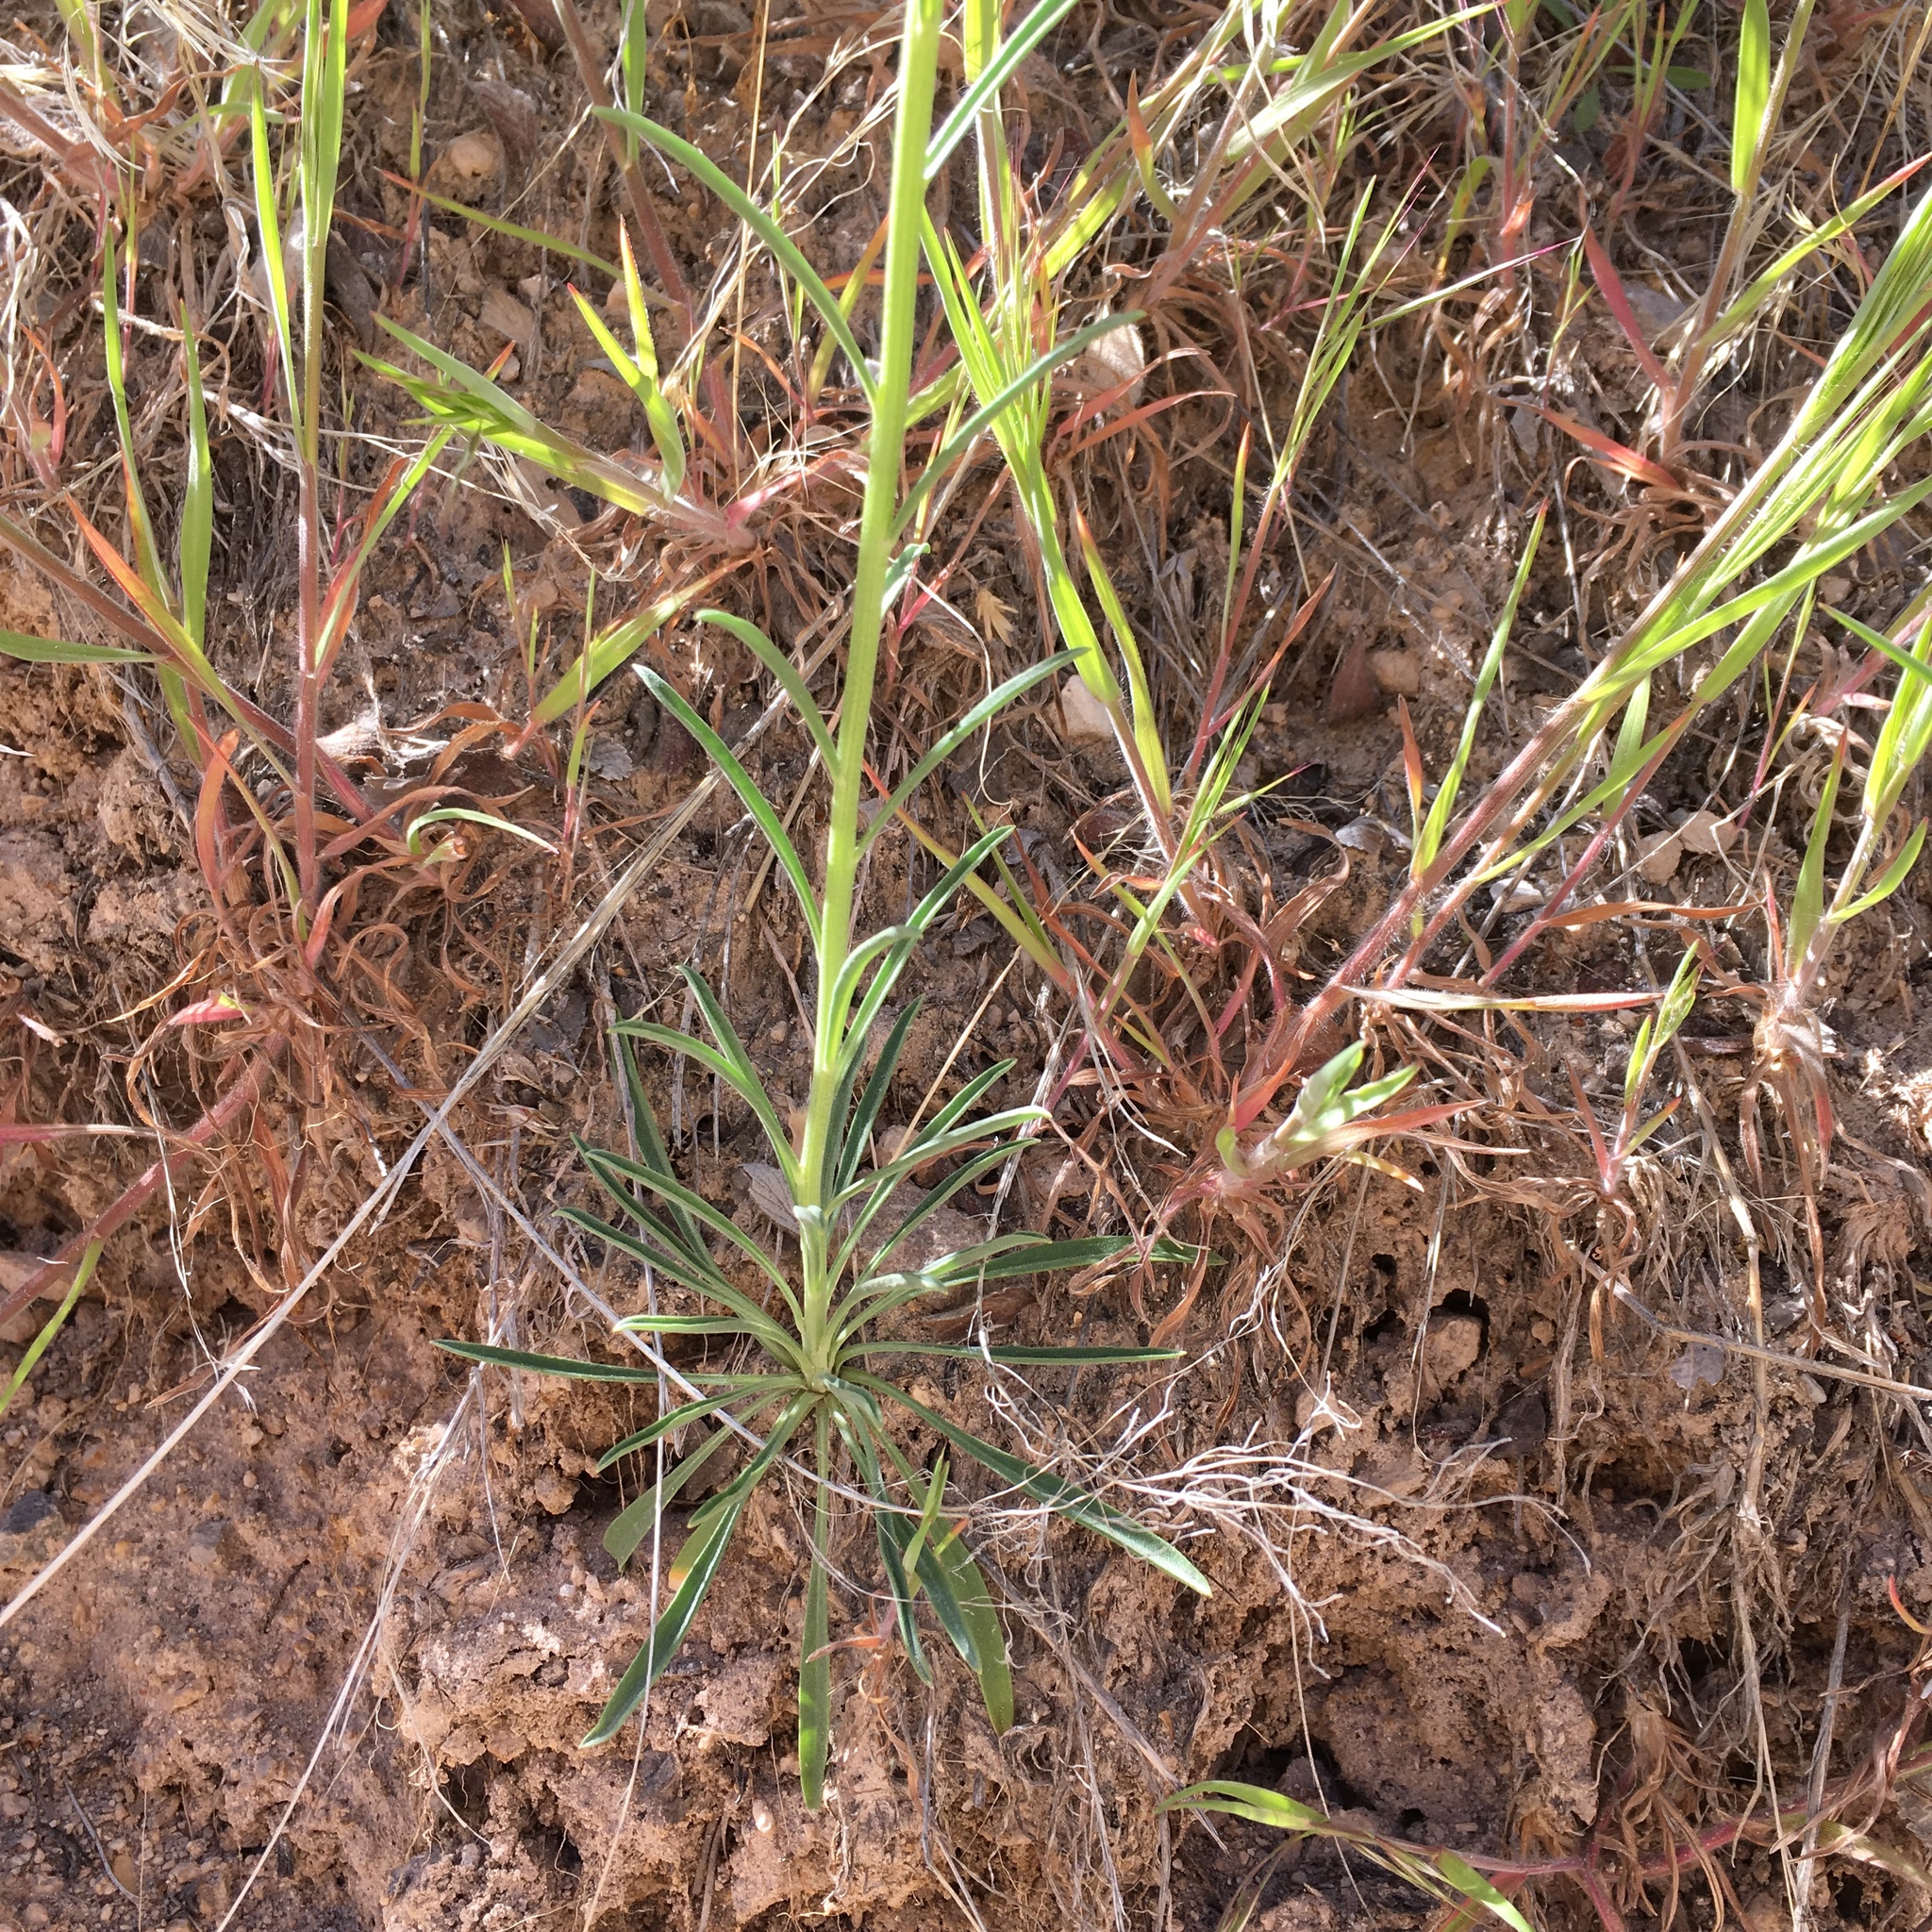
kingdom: Plantae
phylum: Tracheophyta
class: Magnoliopsida
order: Brassicales
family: Brassicaceae
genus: Erysimum
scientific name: Erysimum capitatum
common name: Western wallflower
